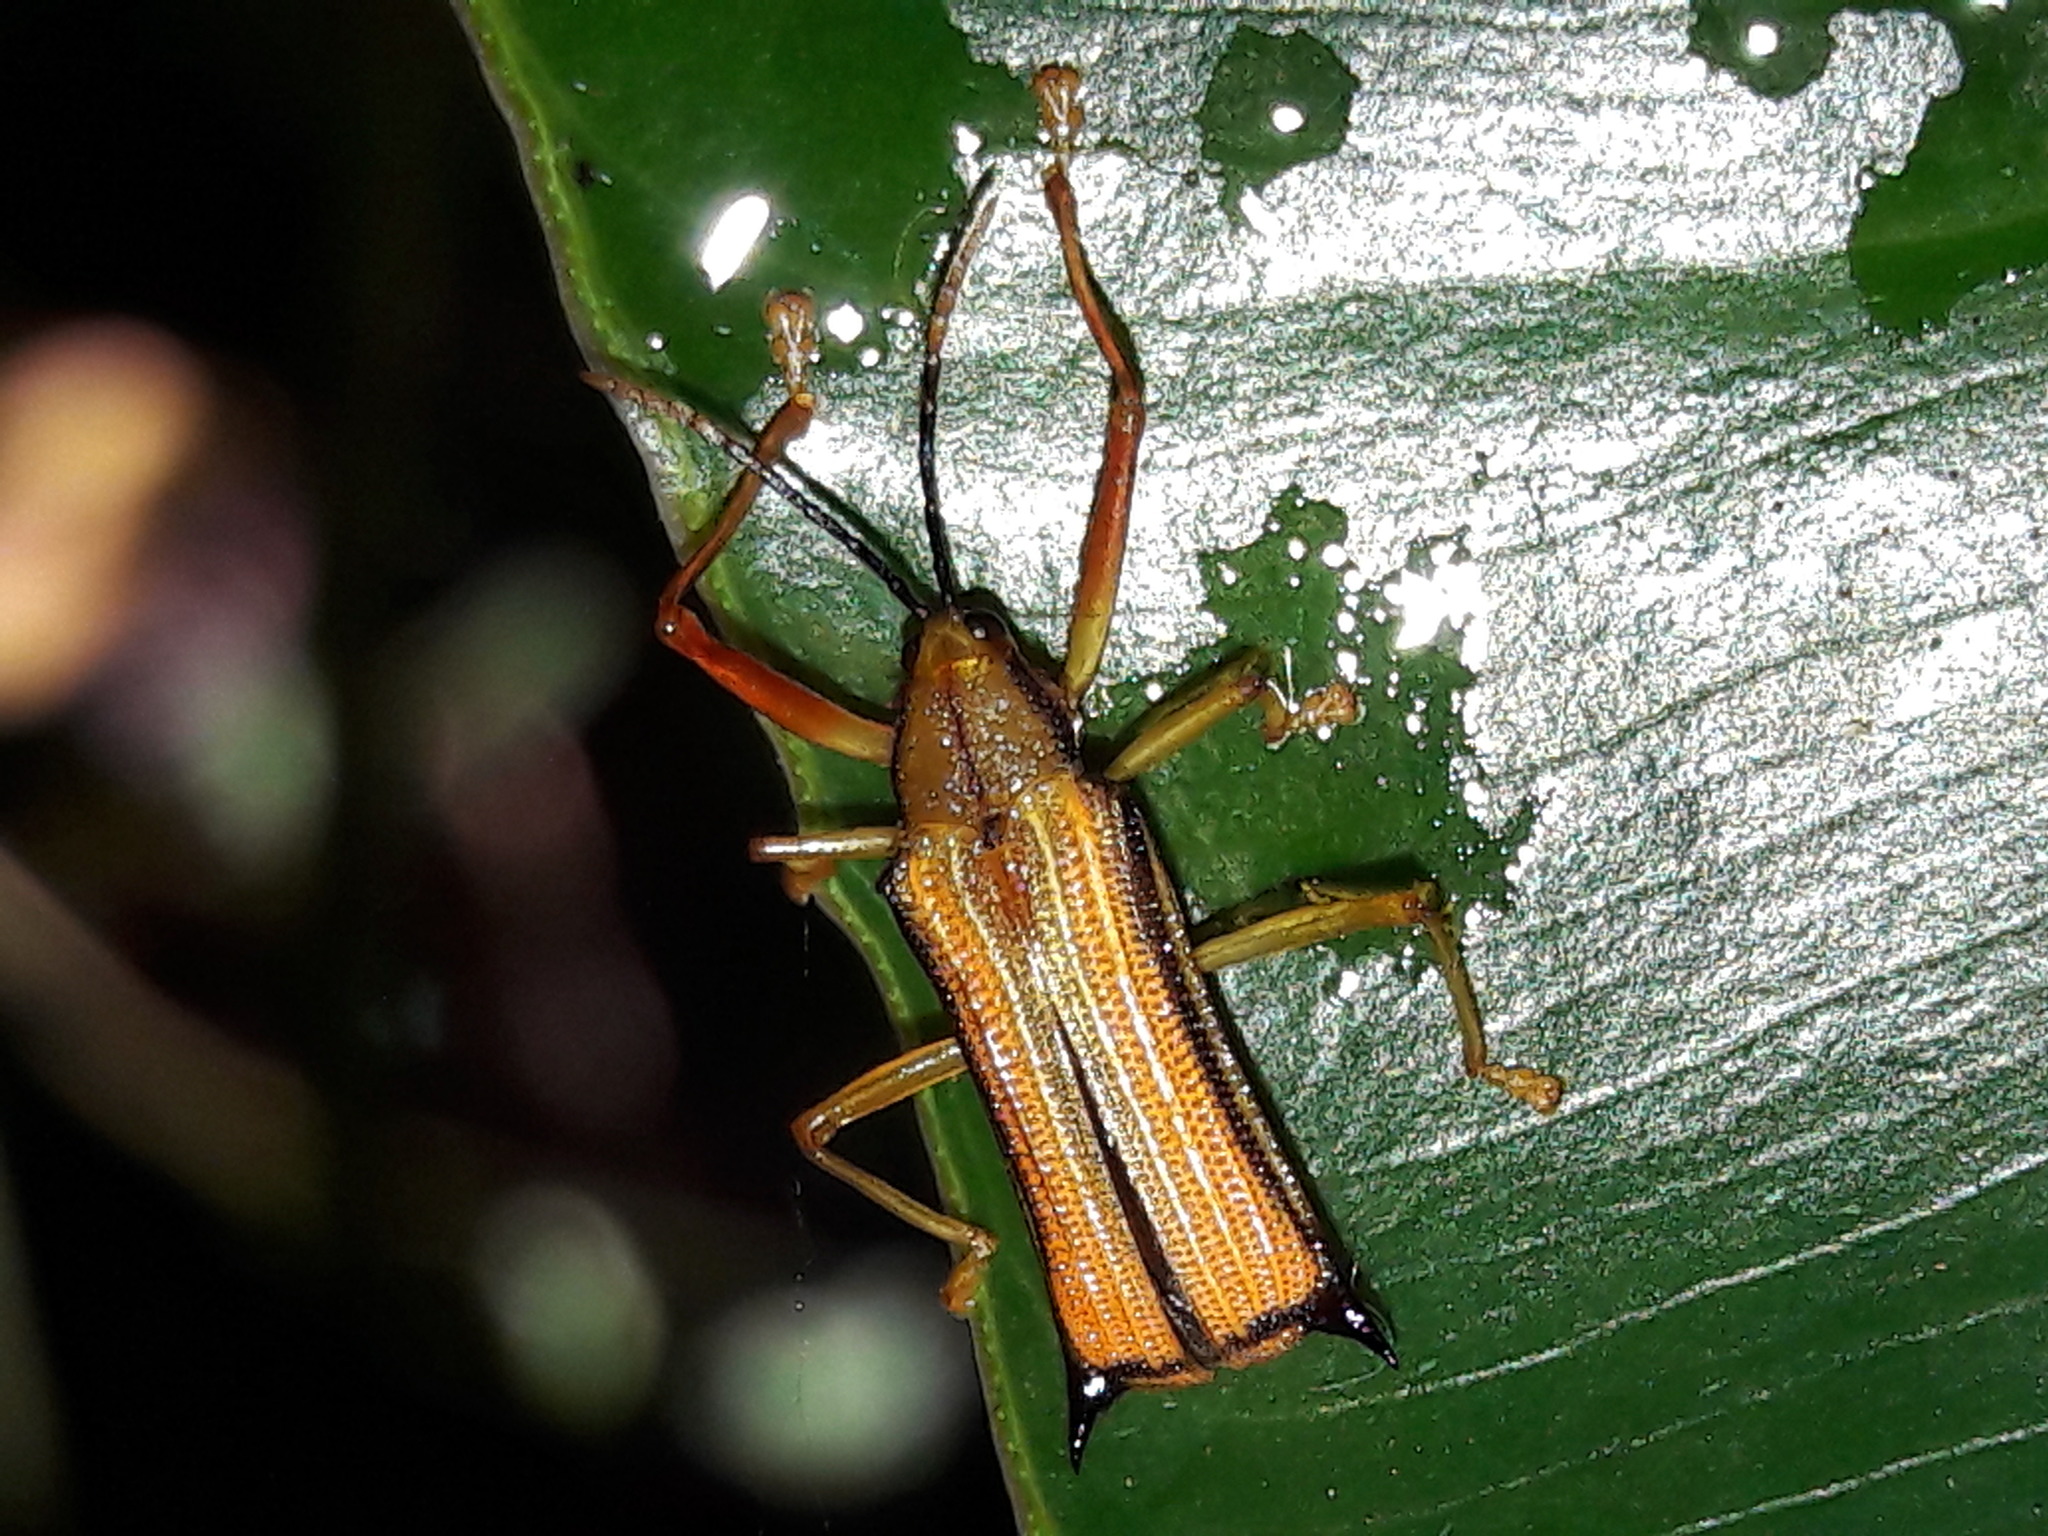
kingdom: Animalia
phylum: Arthropoda
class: Insecta
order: Coleoptera
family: Chrysomelidae
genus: Sceloenopla
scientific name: Sceloenopla bidens
